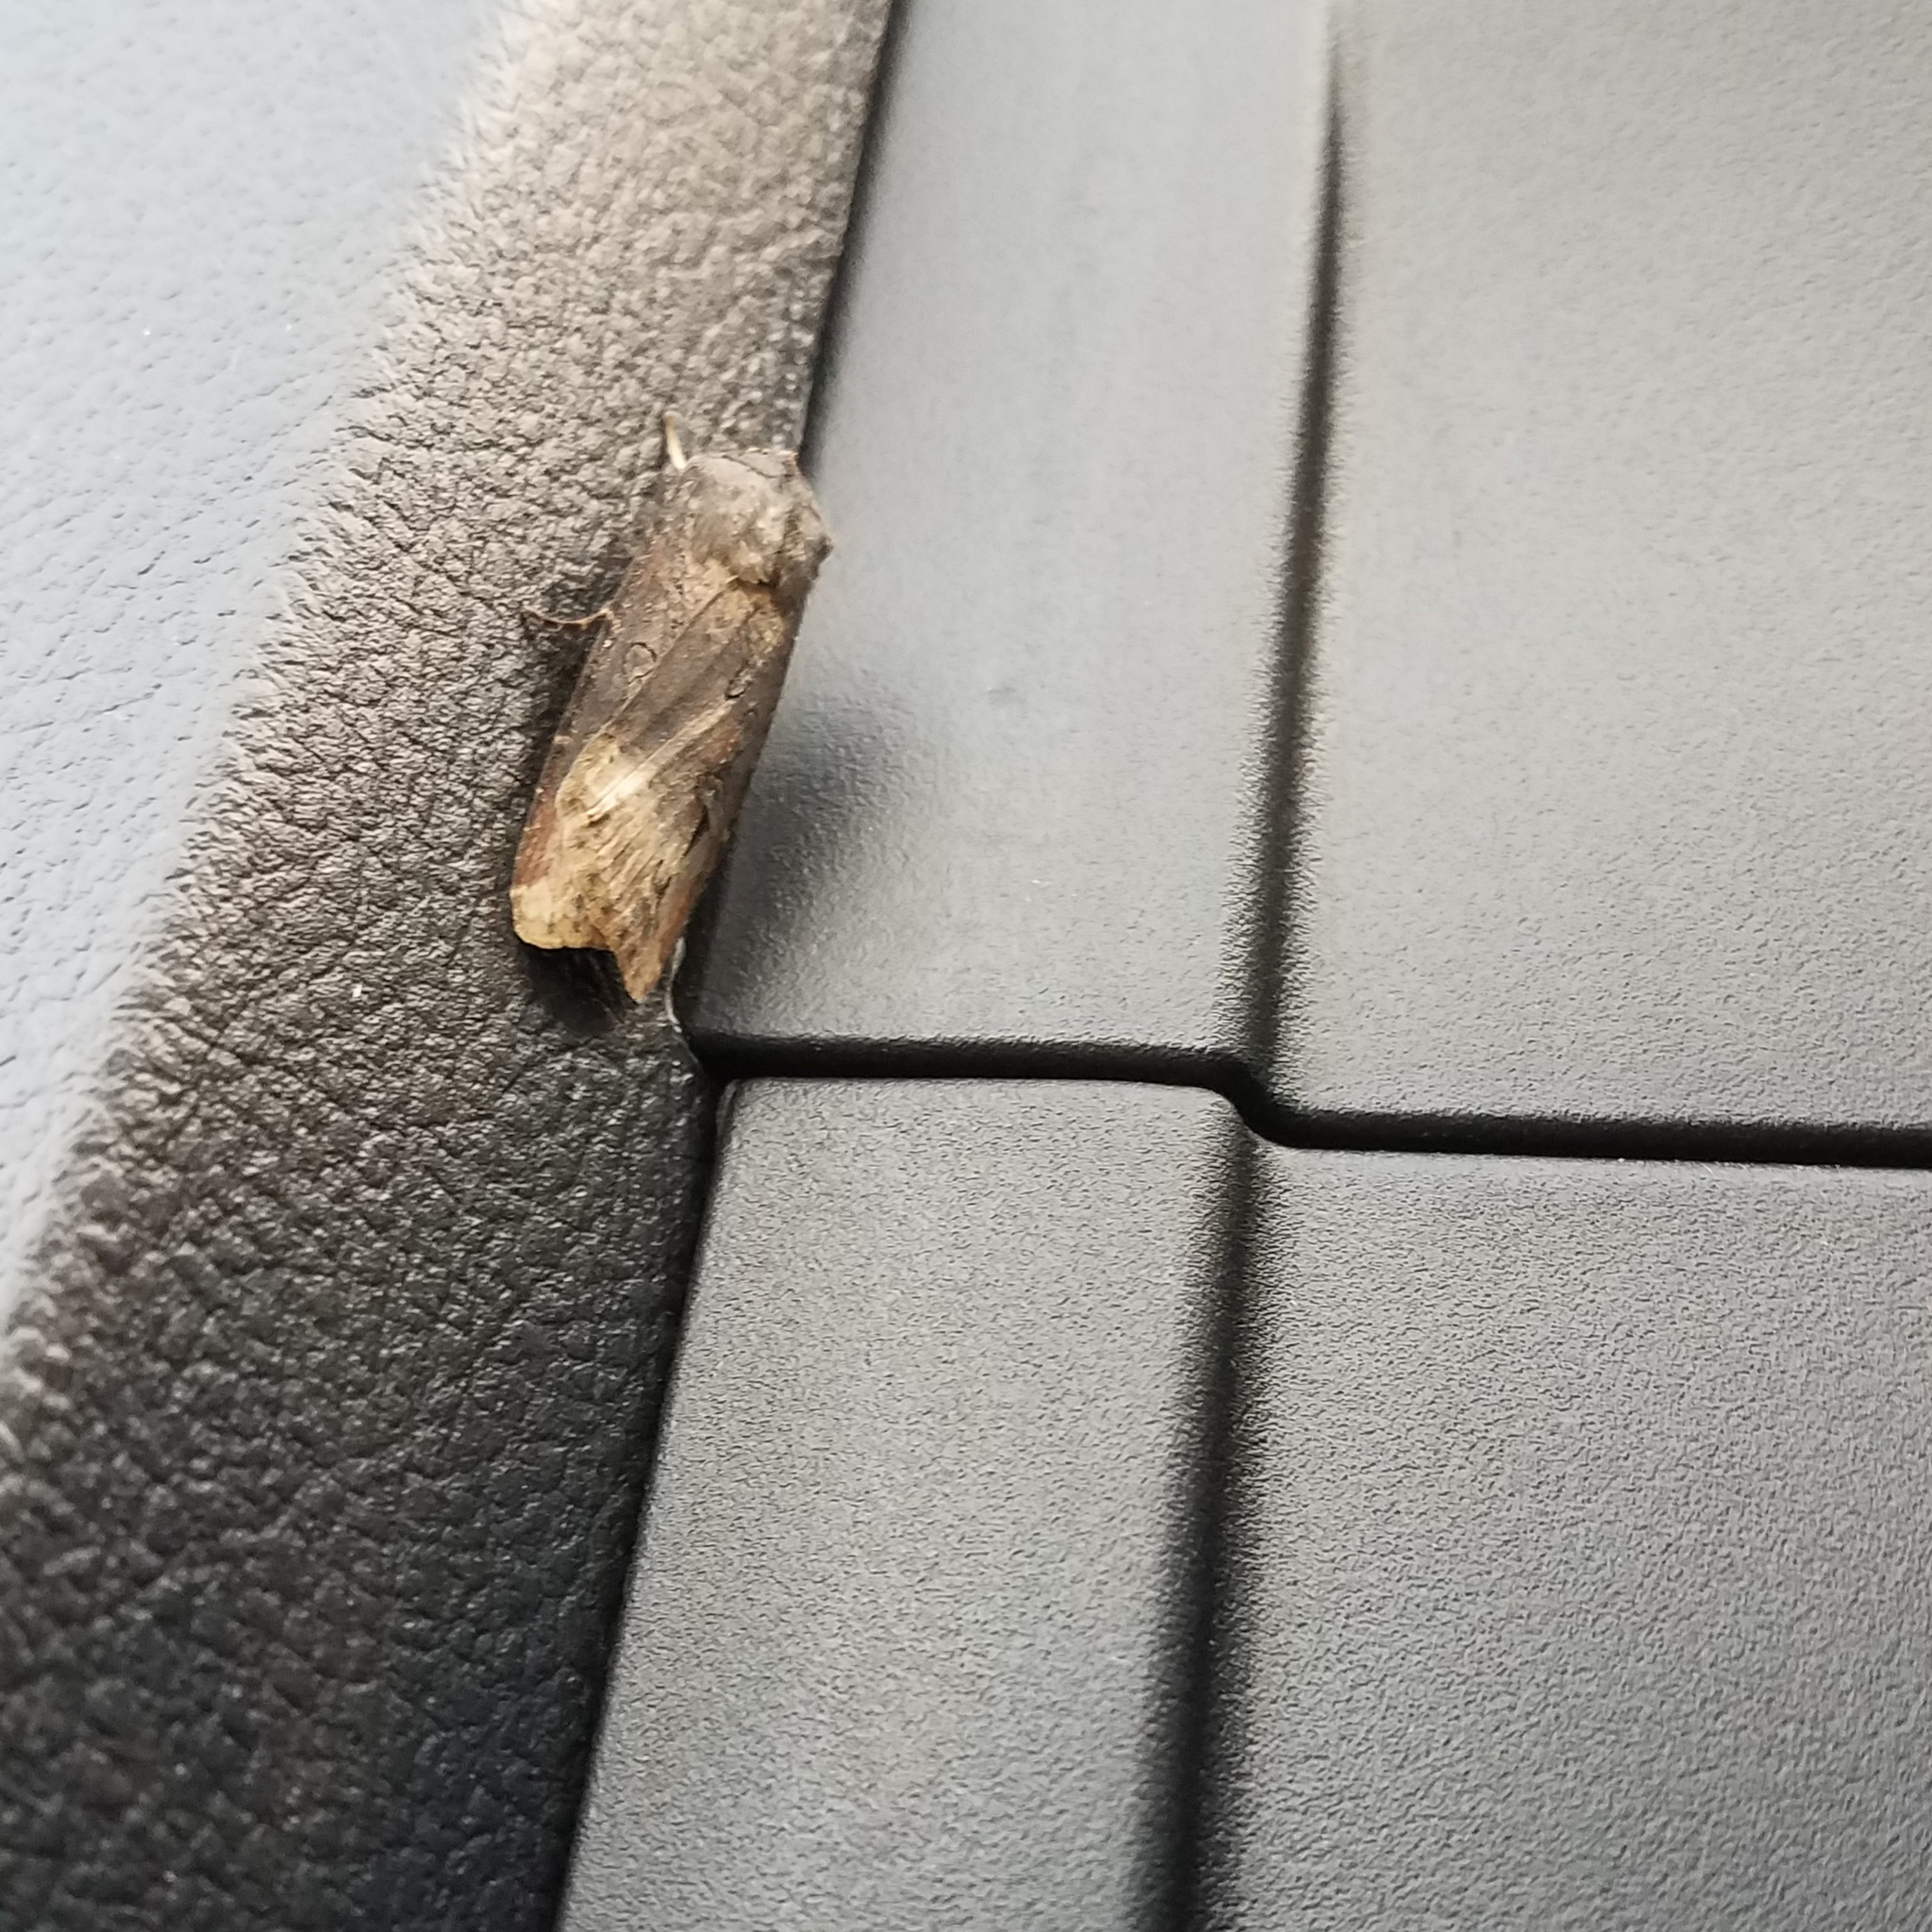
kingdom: Animalia
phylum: Arthropoda
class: Insecta
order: Lepidoptera
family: Noctuidae
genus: Agrotis
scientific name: Agrotis ipsilon
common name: Dark sword-grass
